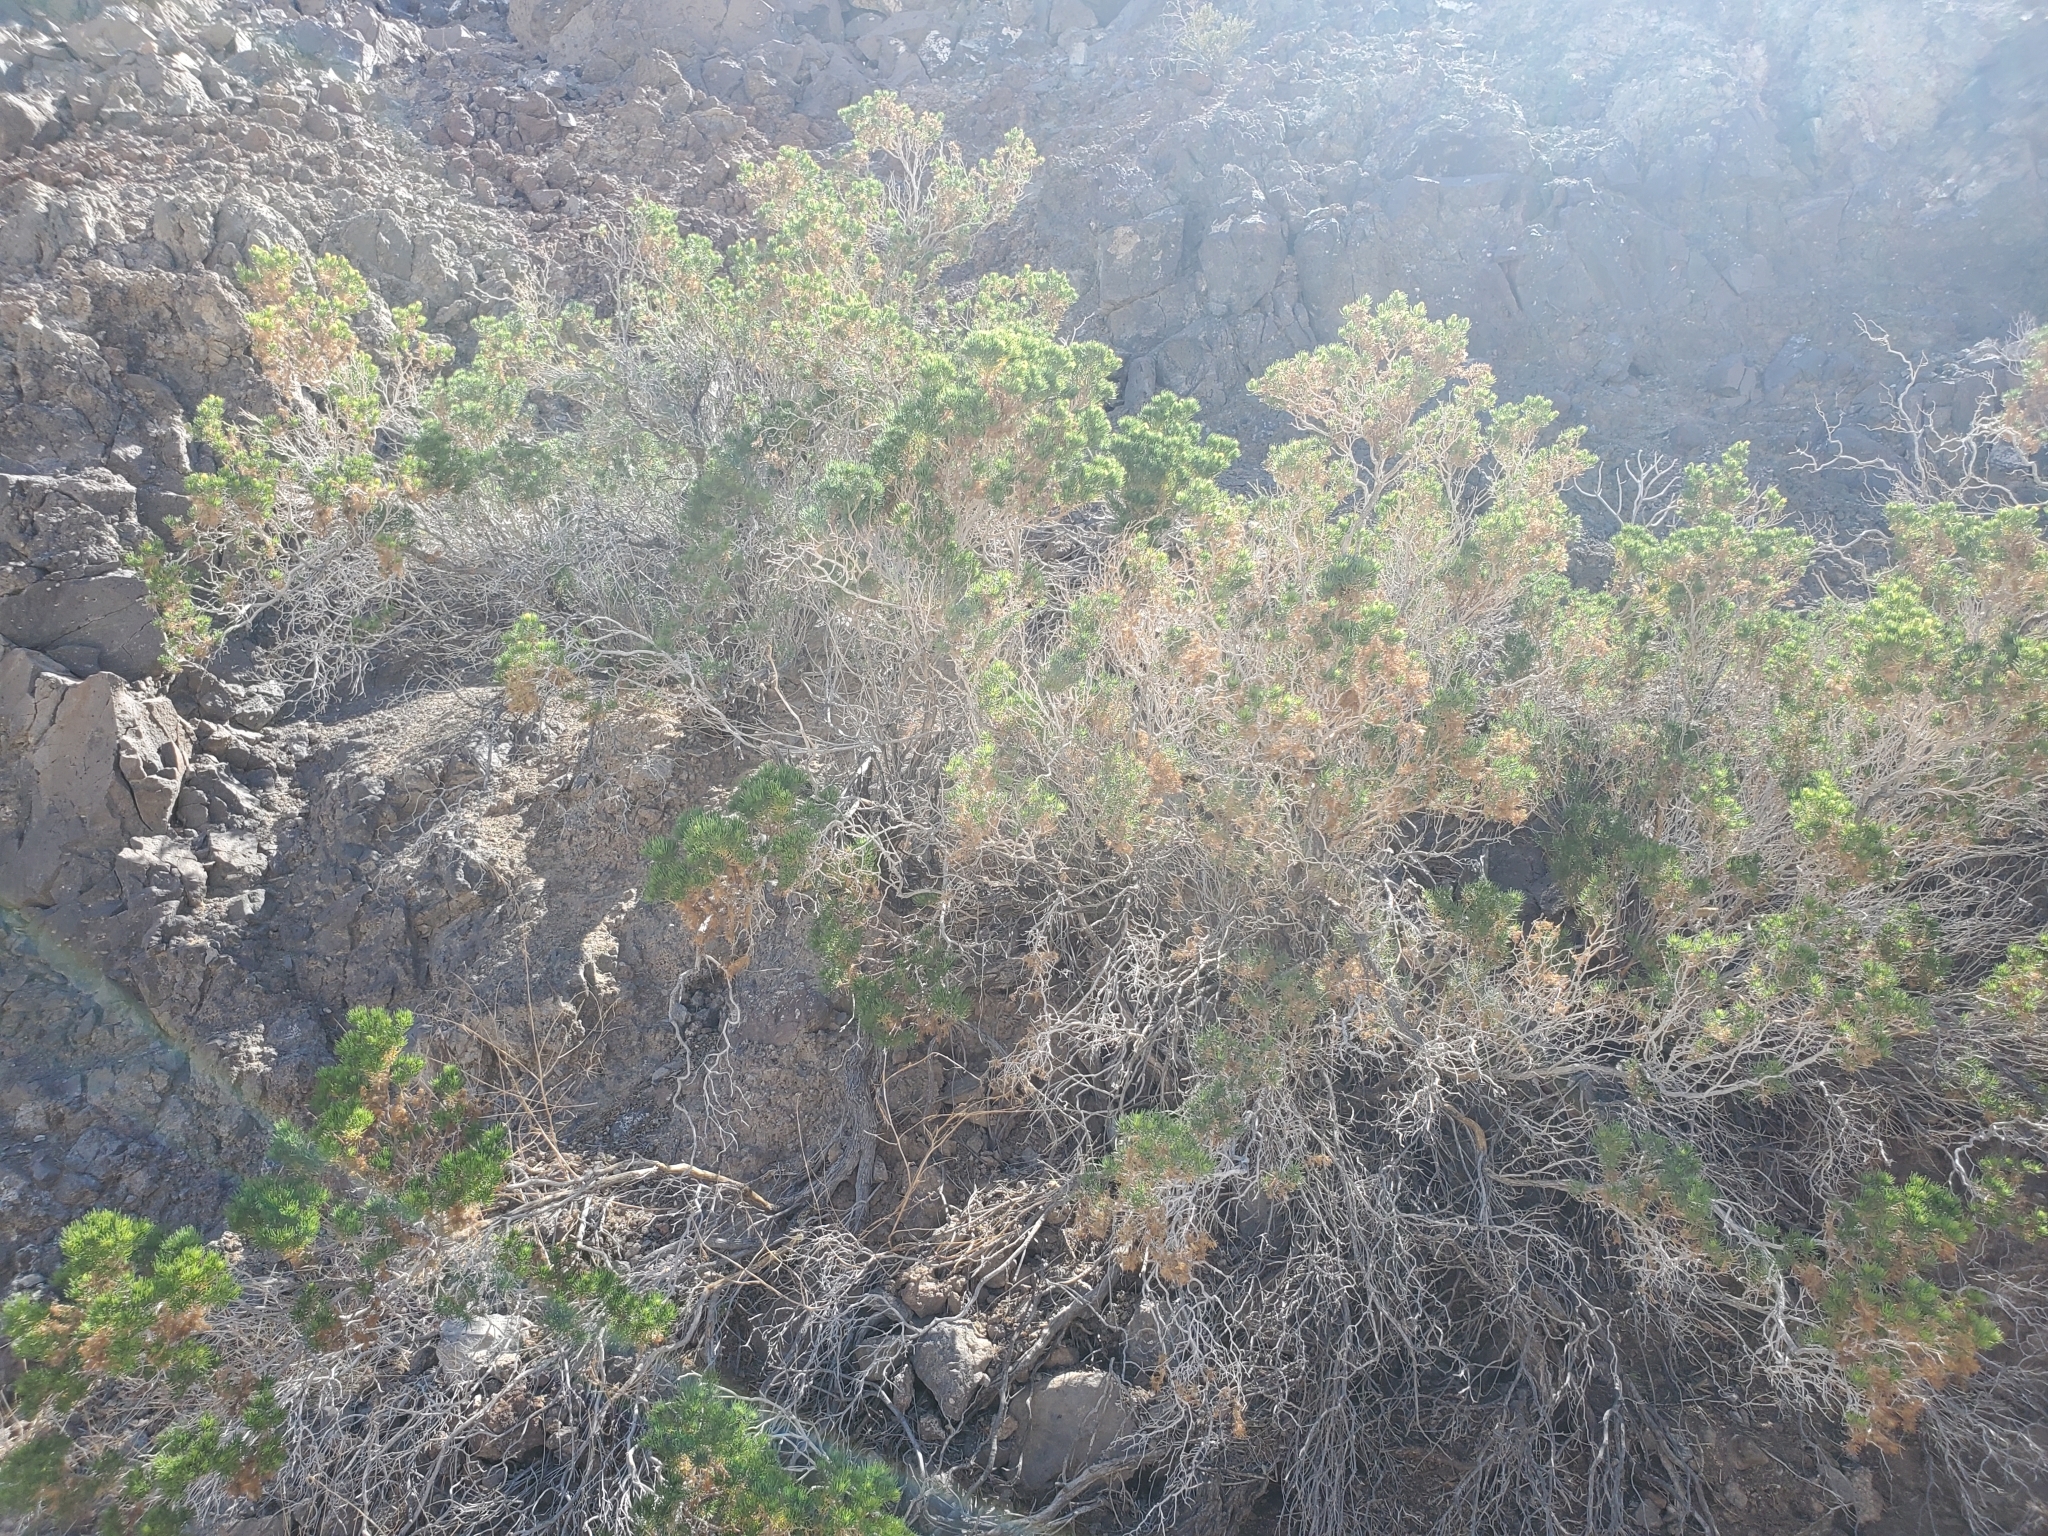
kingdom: Plantae
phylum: Tracheophyta
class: Magnoliopsida
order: Asterales
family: Asteraceae
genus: Peucephyllum
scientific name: Peucephyllum schottii
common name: Pygmy-cedar
